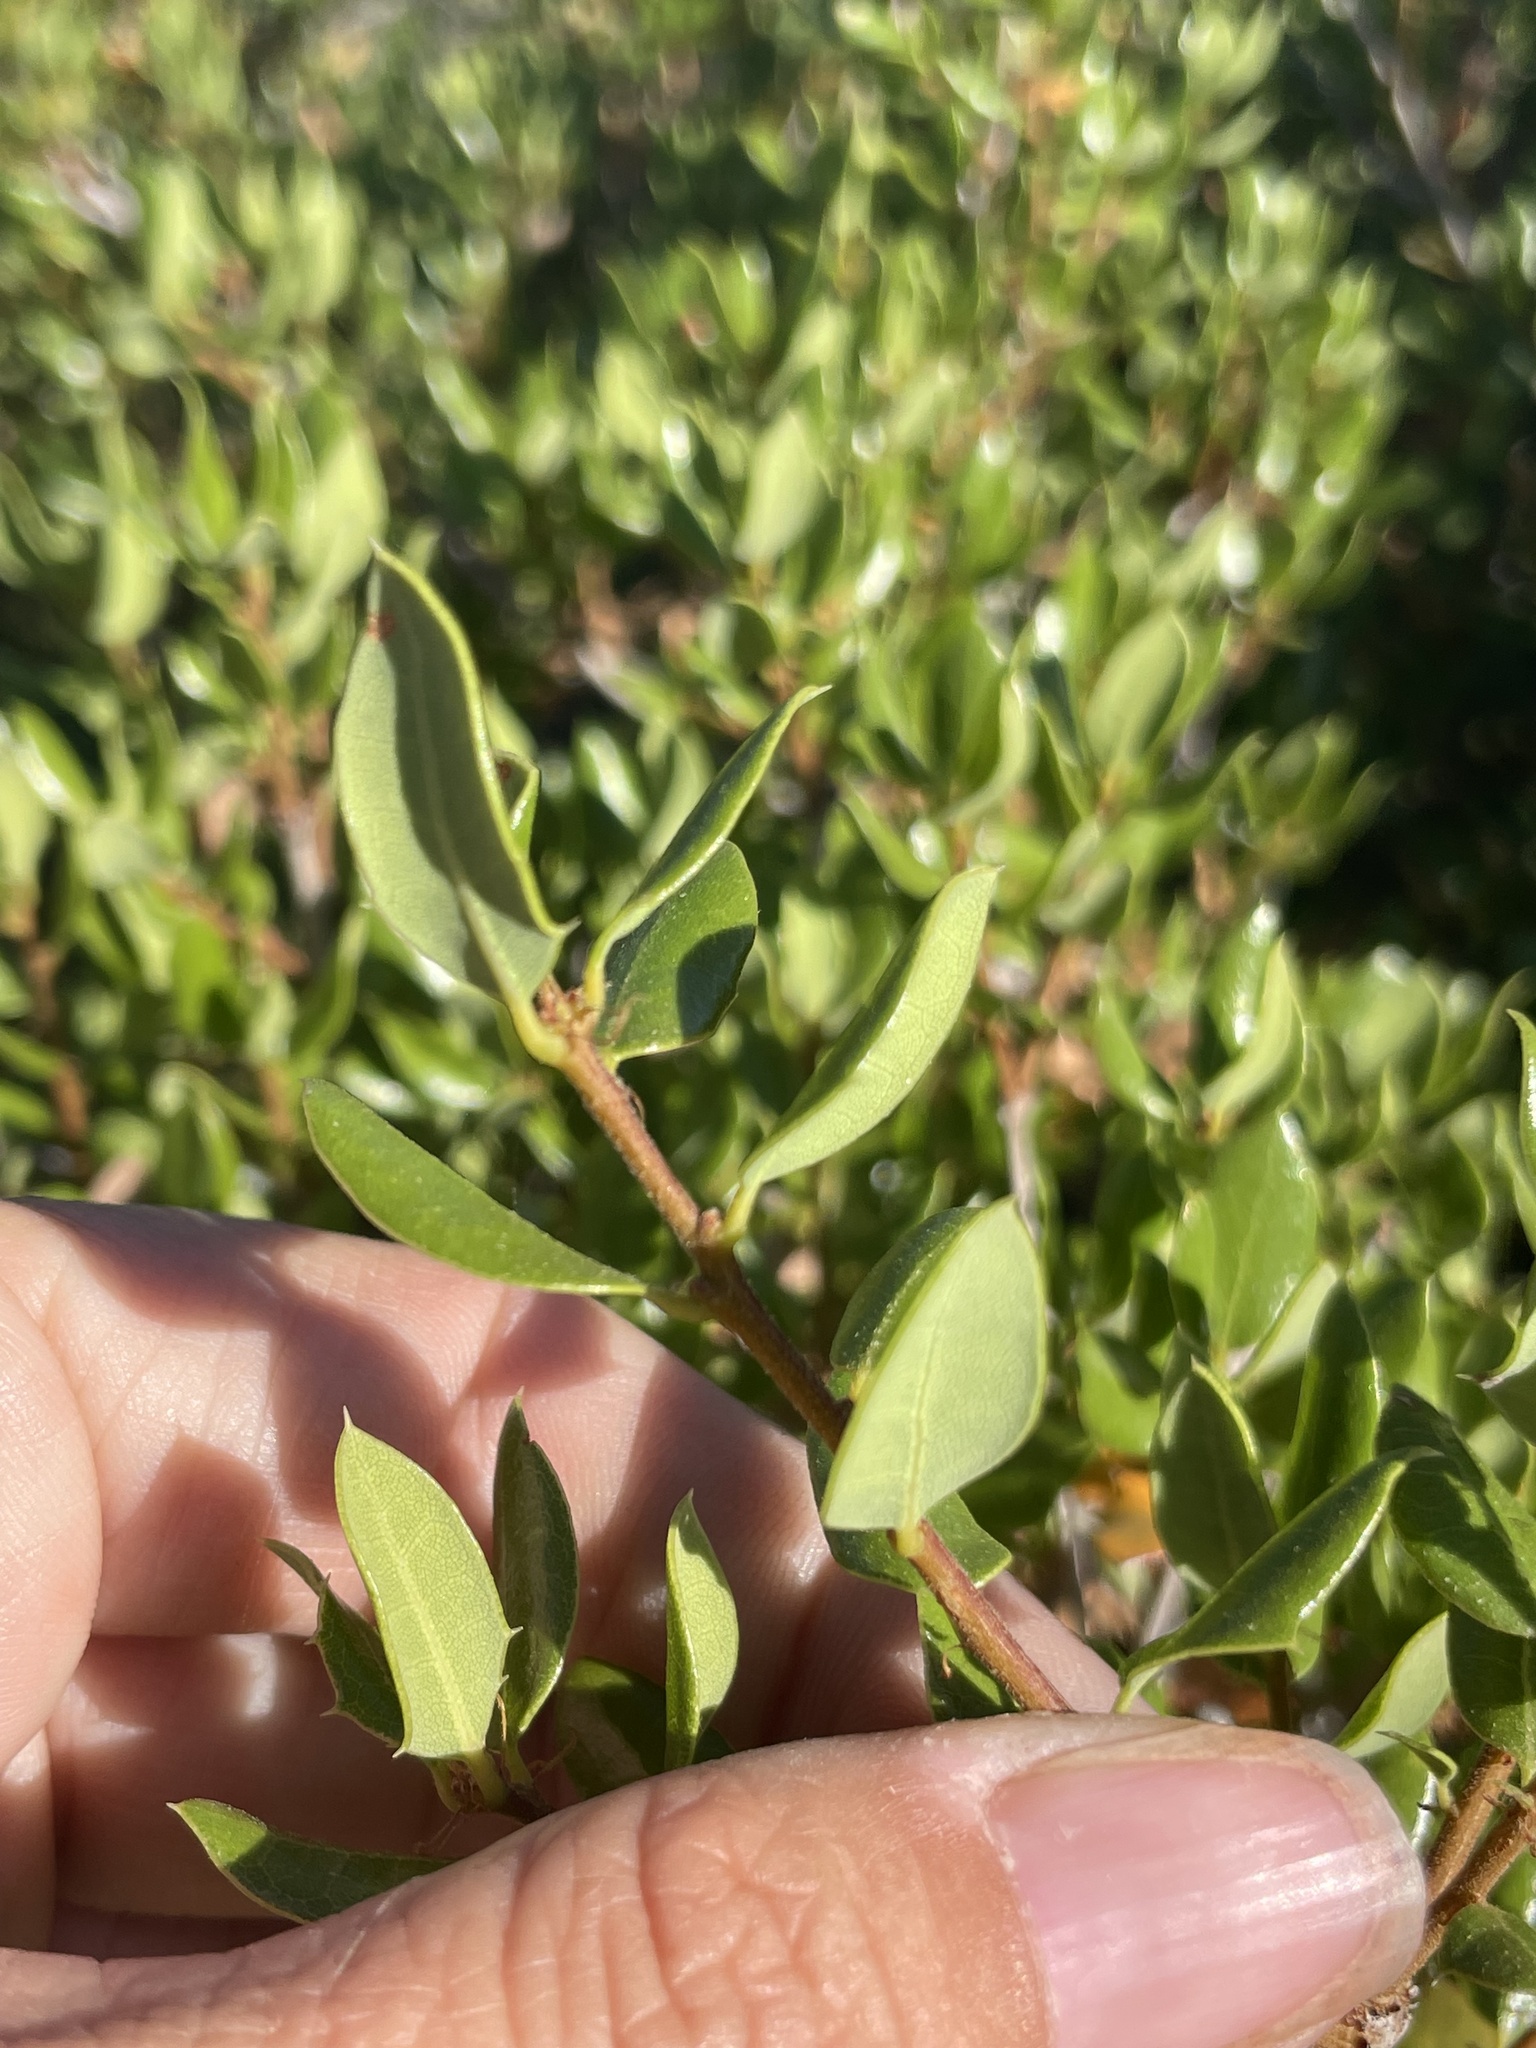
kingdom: Plantae
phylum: Tracheophyta
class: Magnoliopsida
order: Fagales
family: Fagaceae
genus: Quercus
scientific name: Quercus cedrosensis
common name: Cedros island oak
